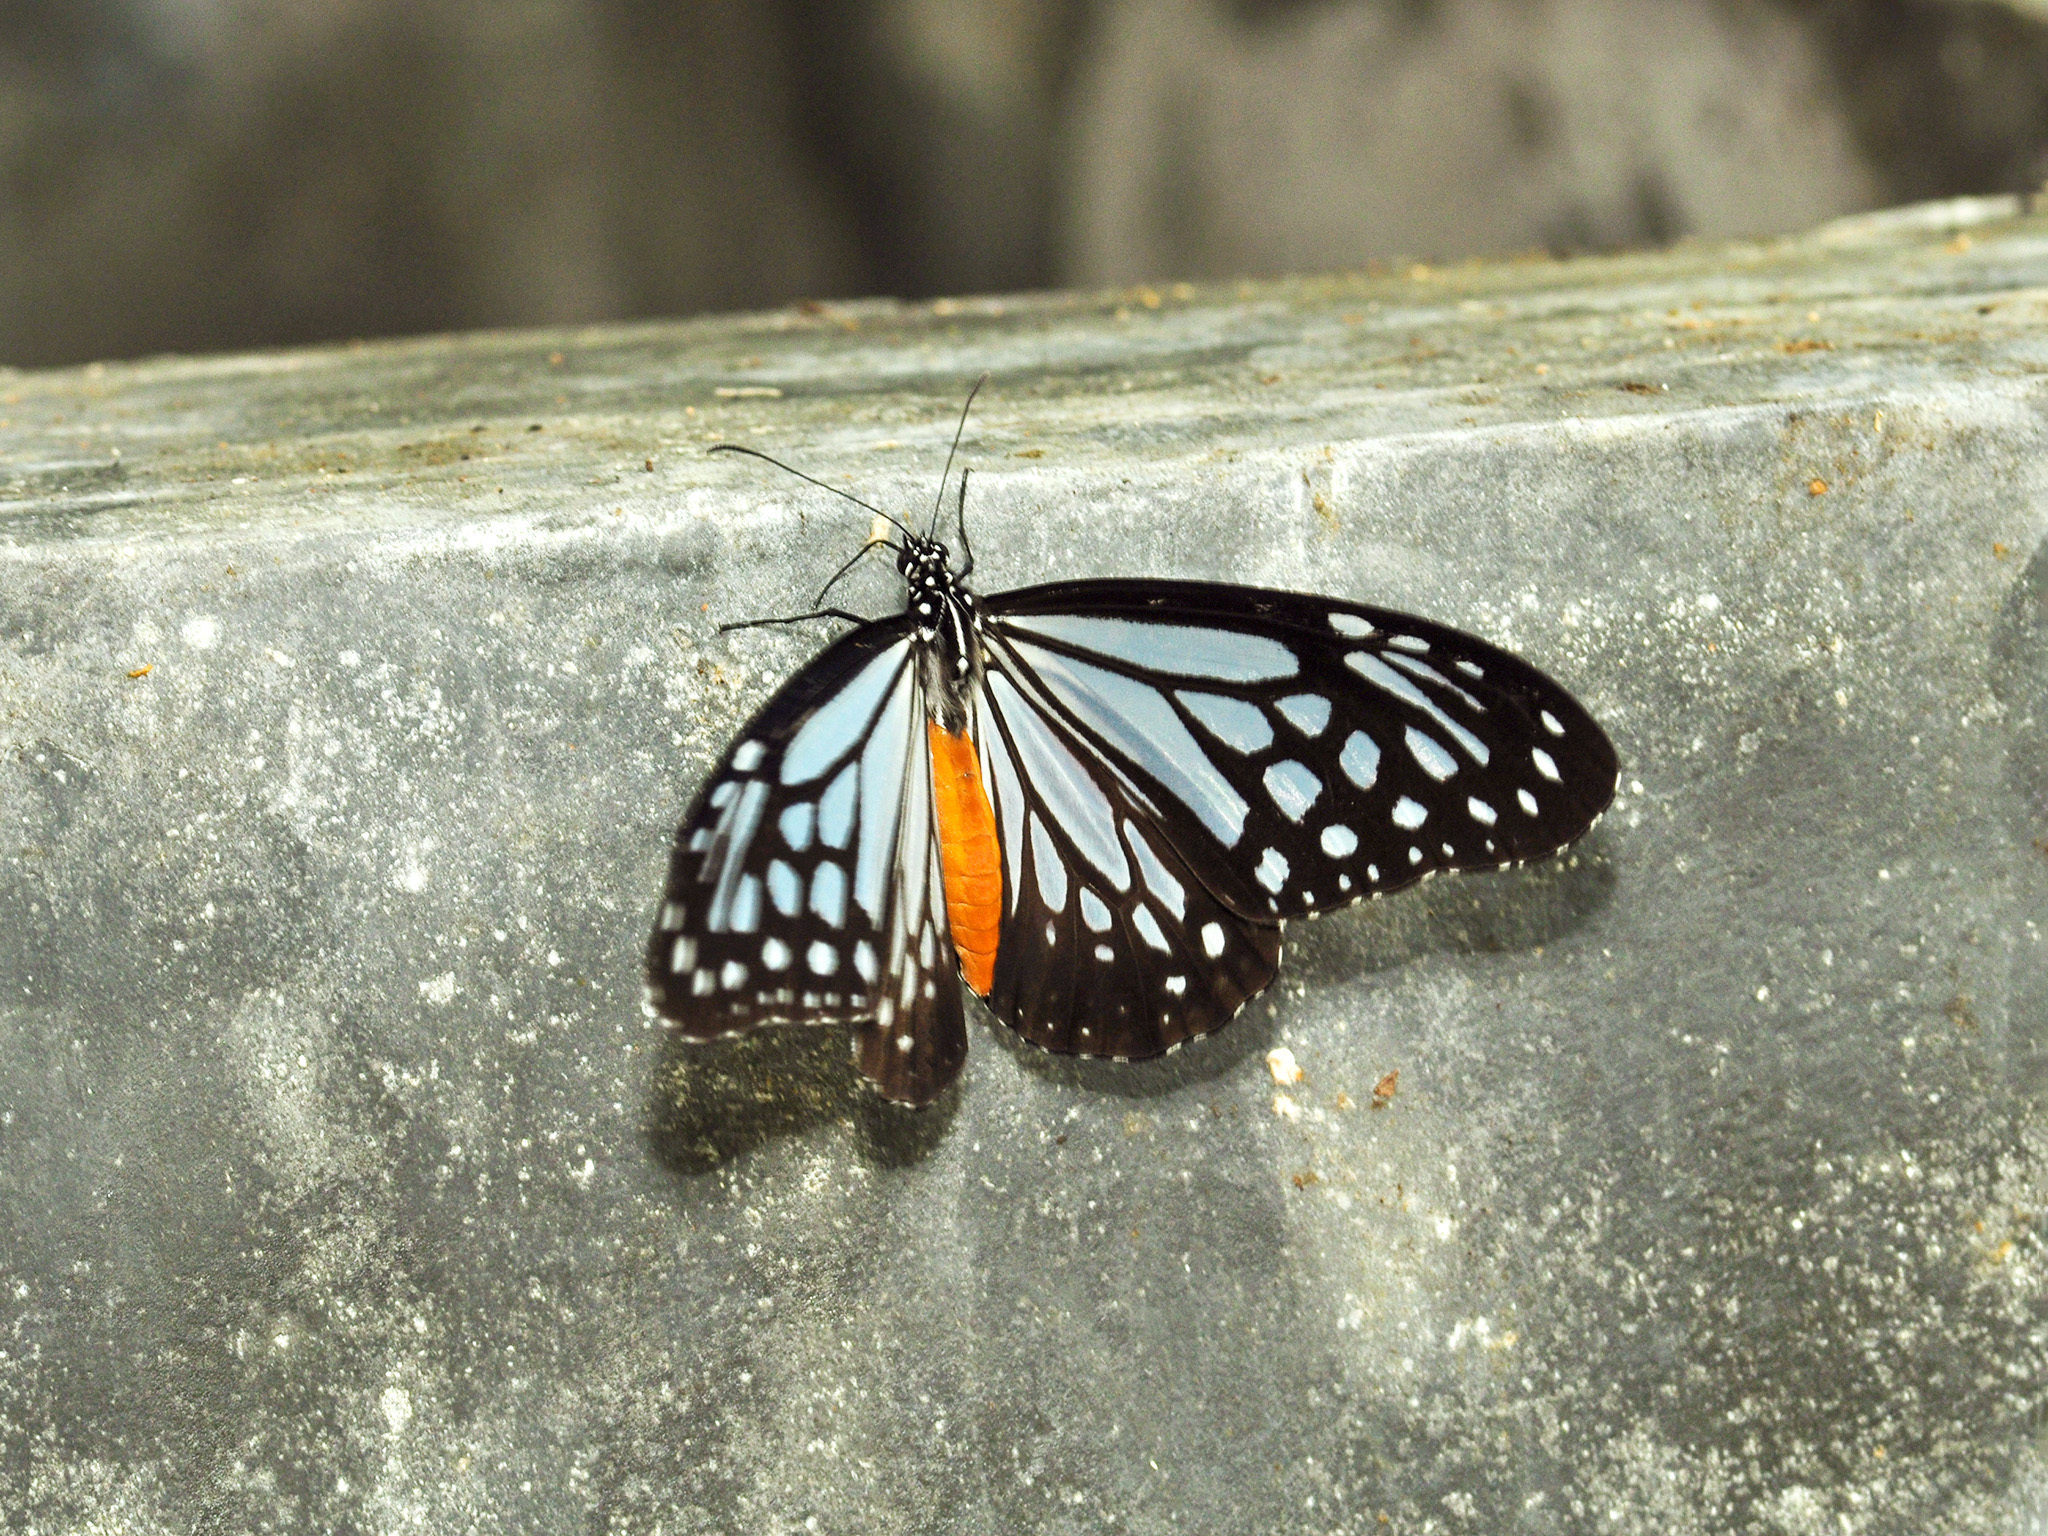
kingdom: Animalia
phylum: Arthropoda
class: Insecta
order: Lepidoptera
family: Nymphalidae
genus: Parantica
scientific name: Parantica melaneus
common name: Chocolate tiger
